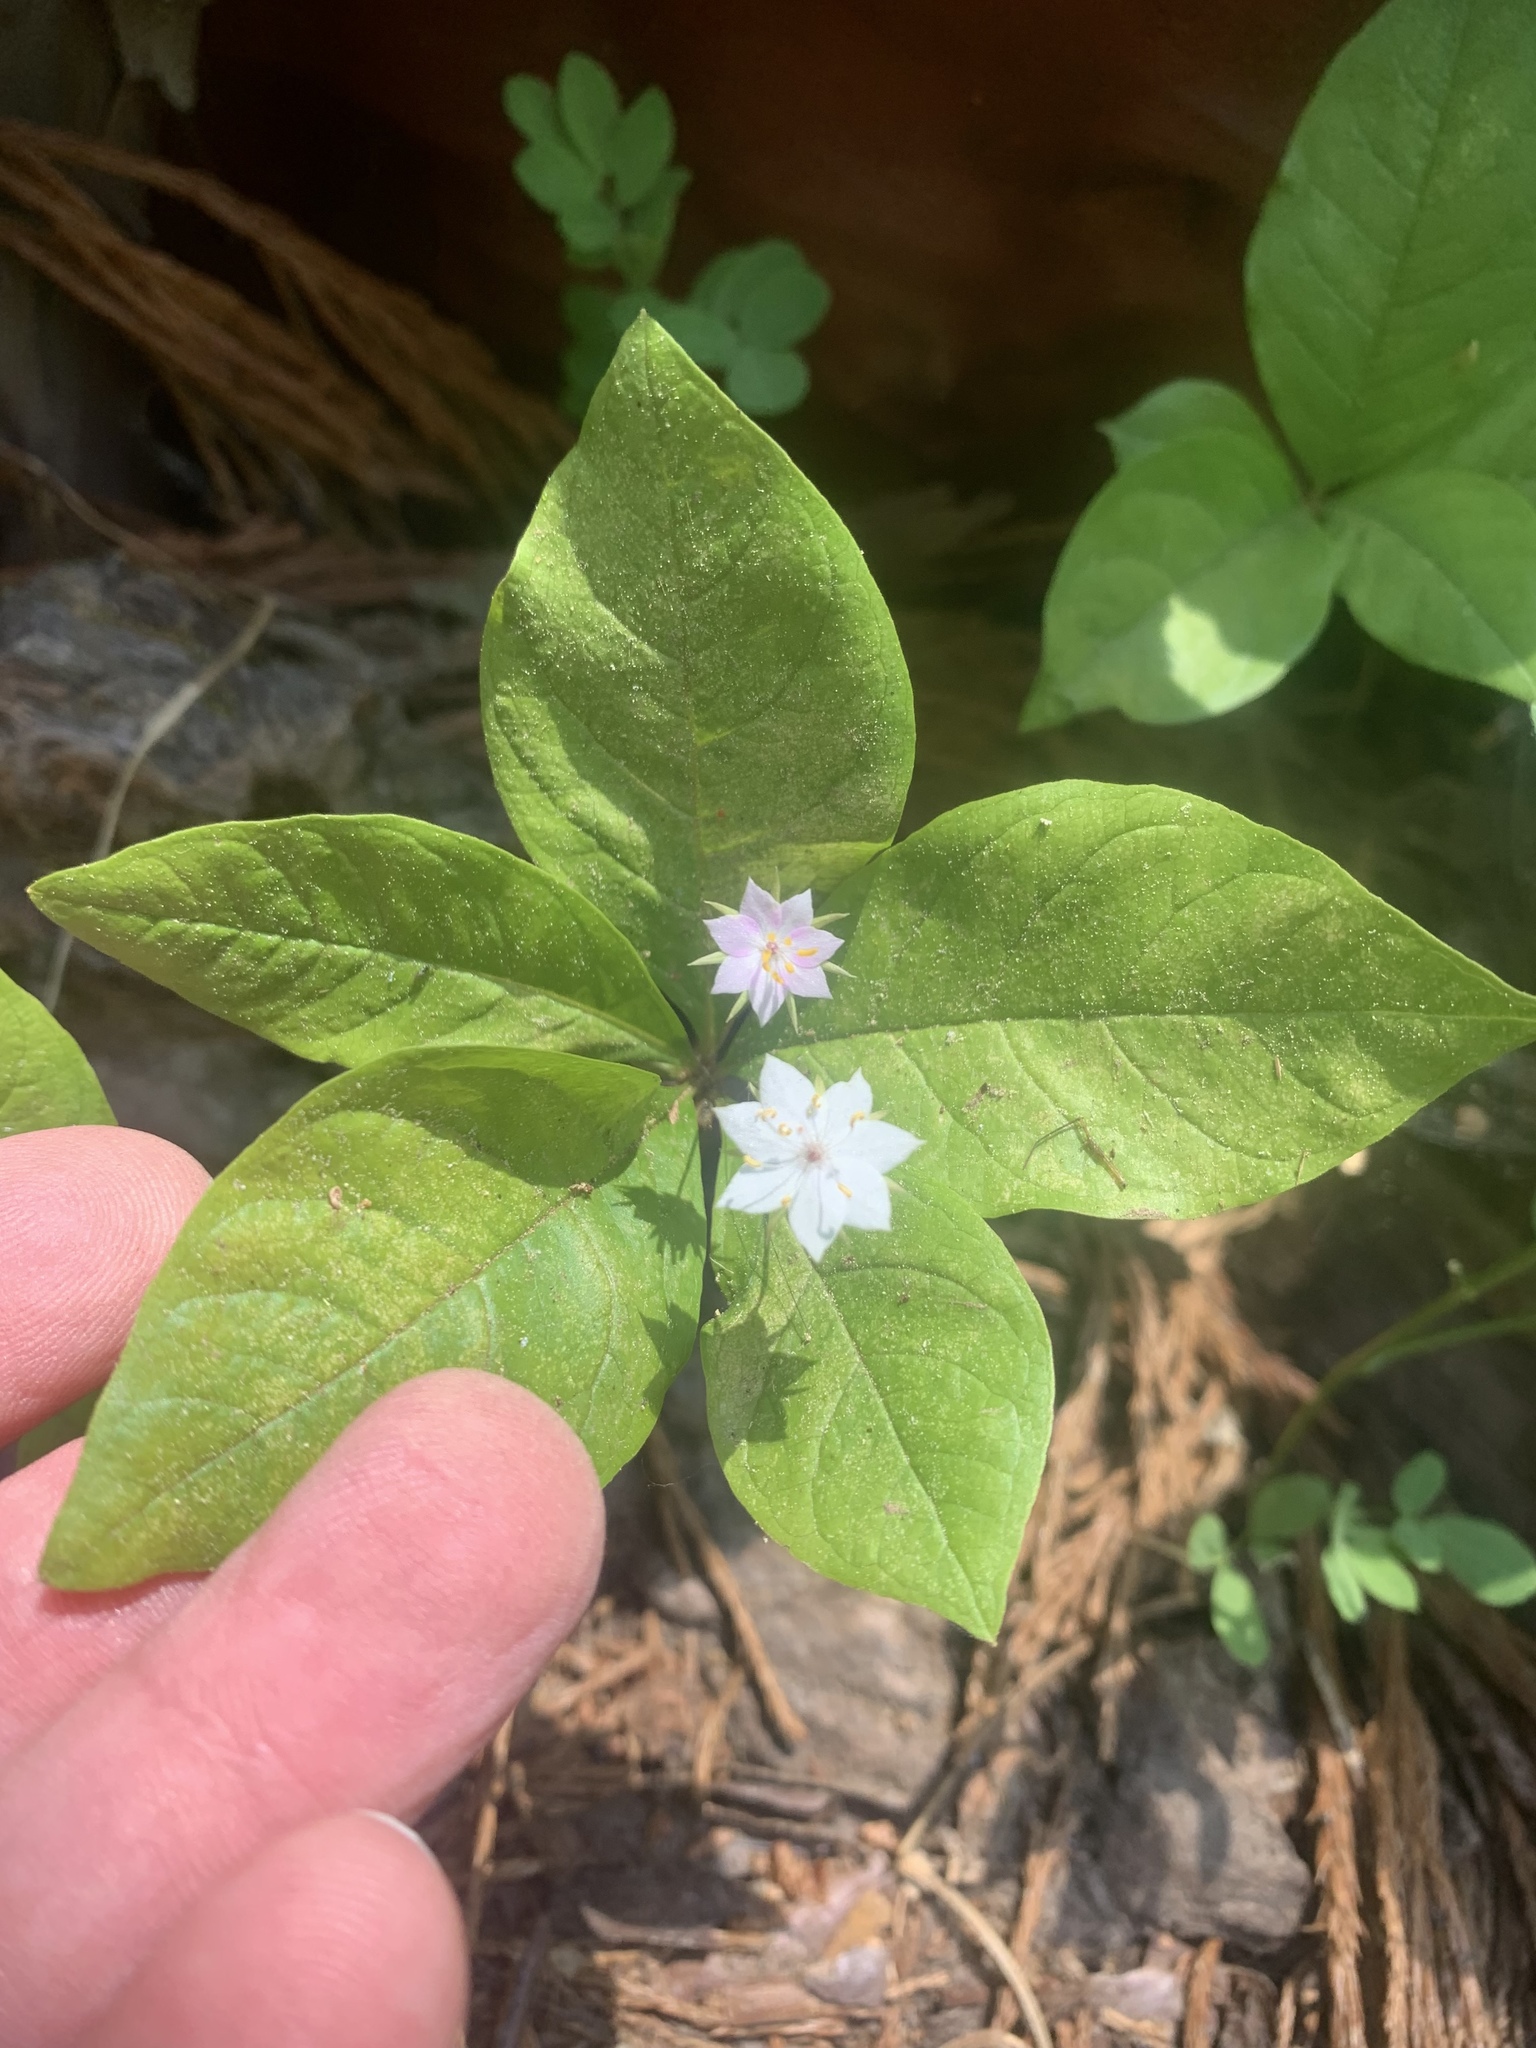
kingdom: Plantae
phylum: Tracheophyta
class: Magnoliopsida
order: Ericales
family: Primulaceae
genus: Lysimachia
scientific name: Lysimachia latifolia
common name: Pacific starflower
